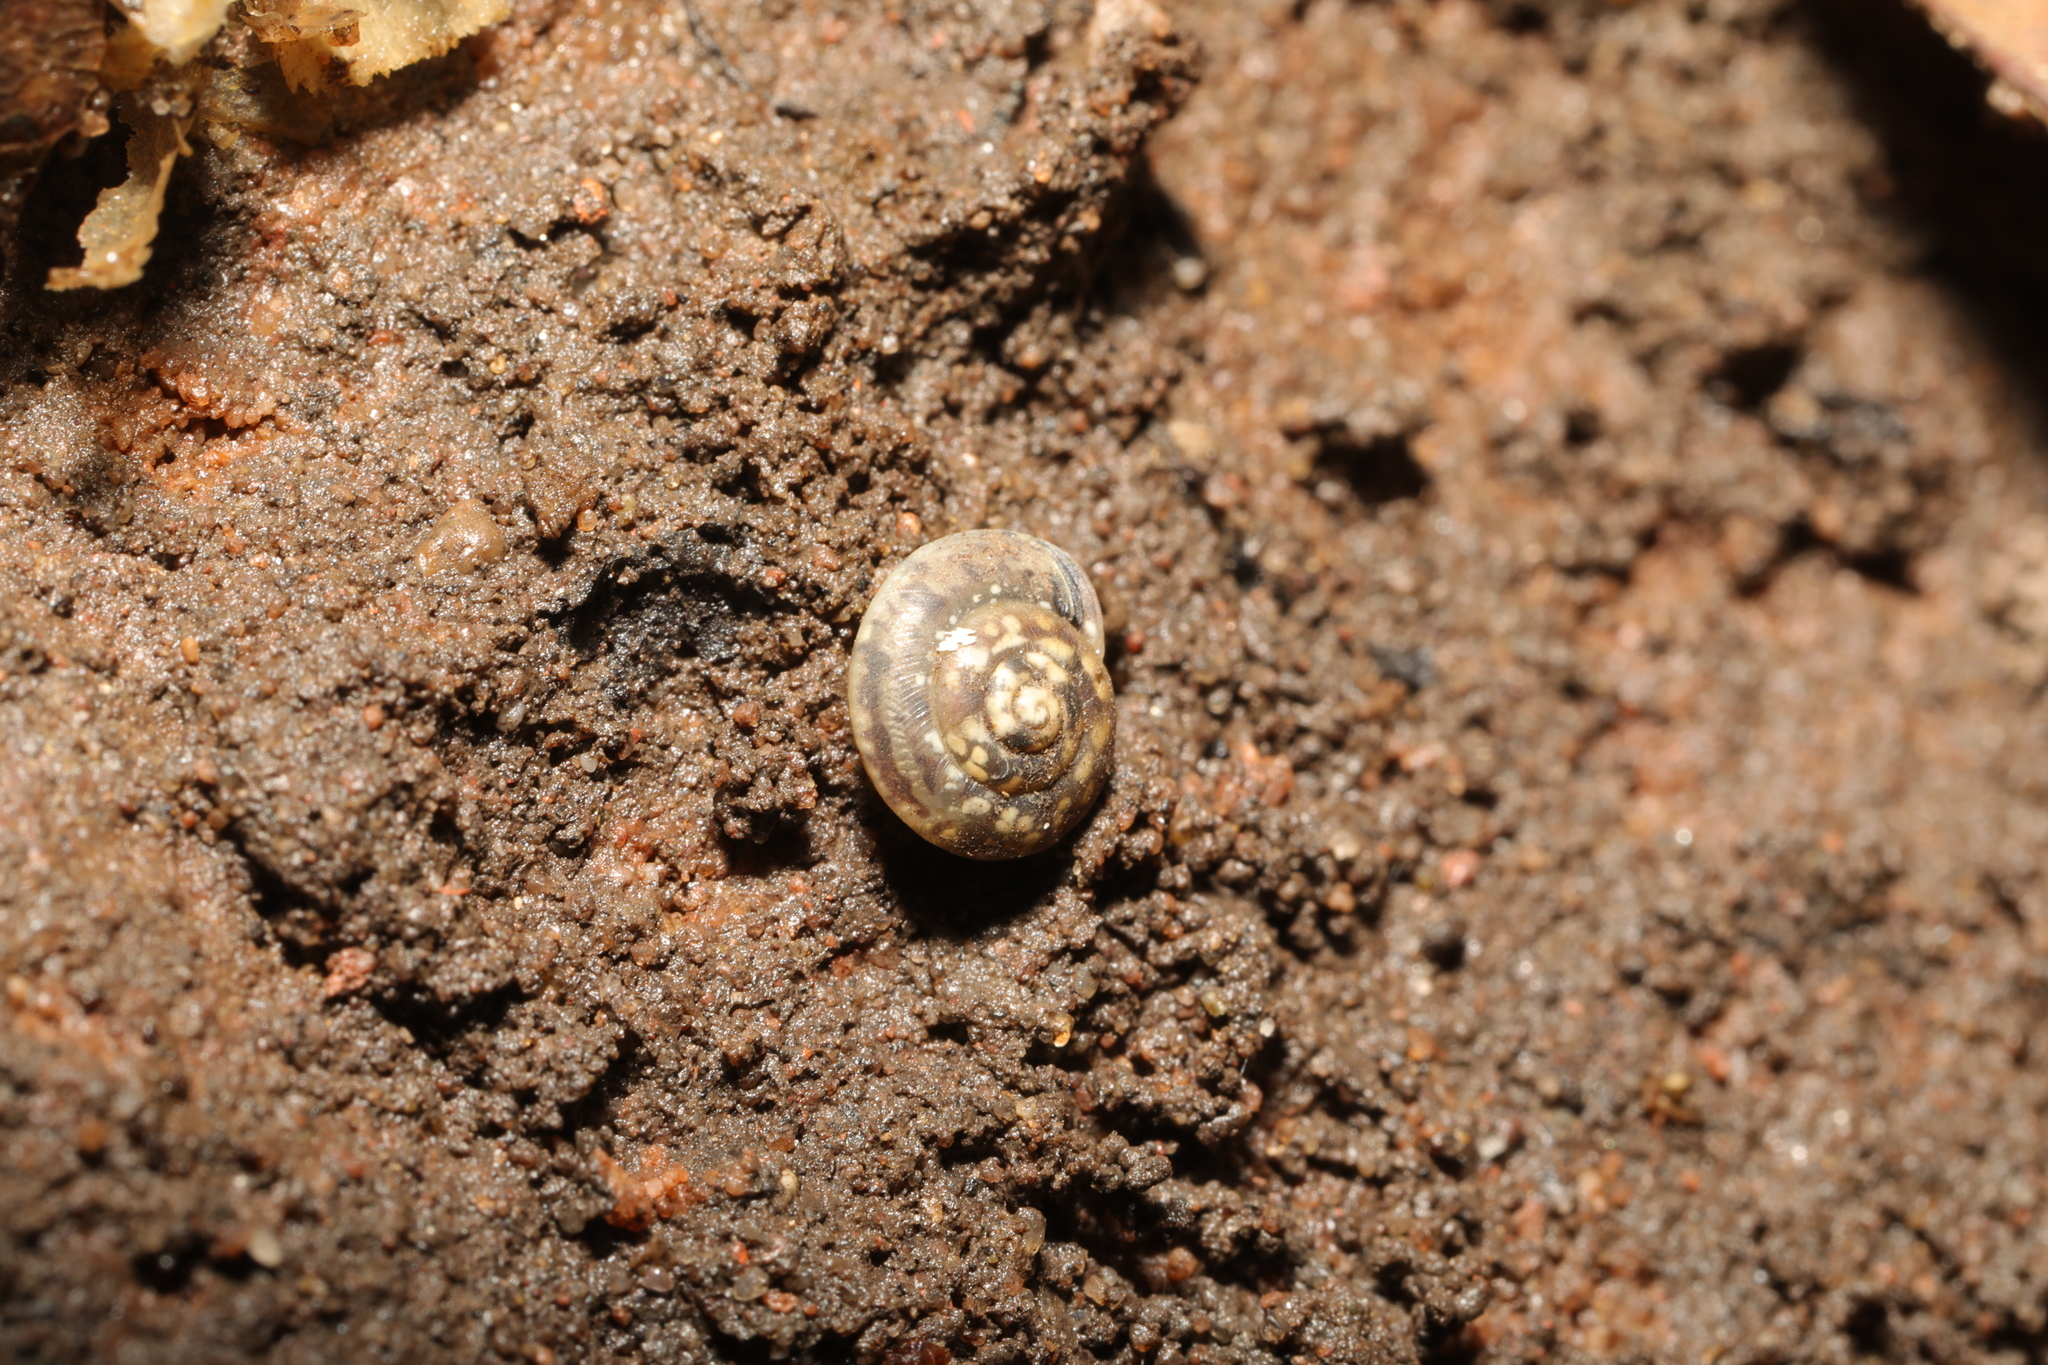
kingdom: Animalia
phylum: Mollusca
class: Gastropoda
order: Stylommatophora
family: Hygromiidae
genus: Hygromia
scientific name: Hygromia cinctella
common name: Girdled snail
